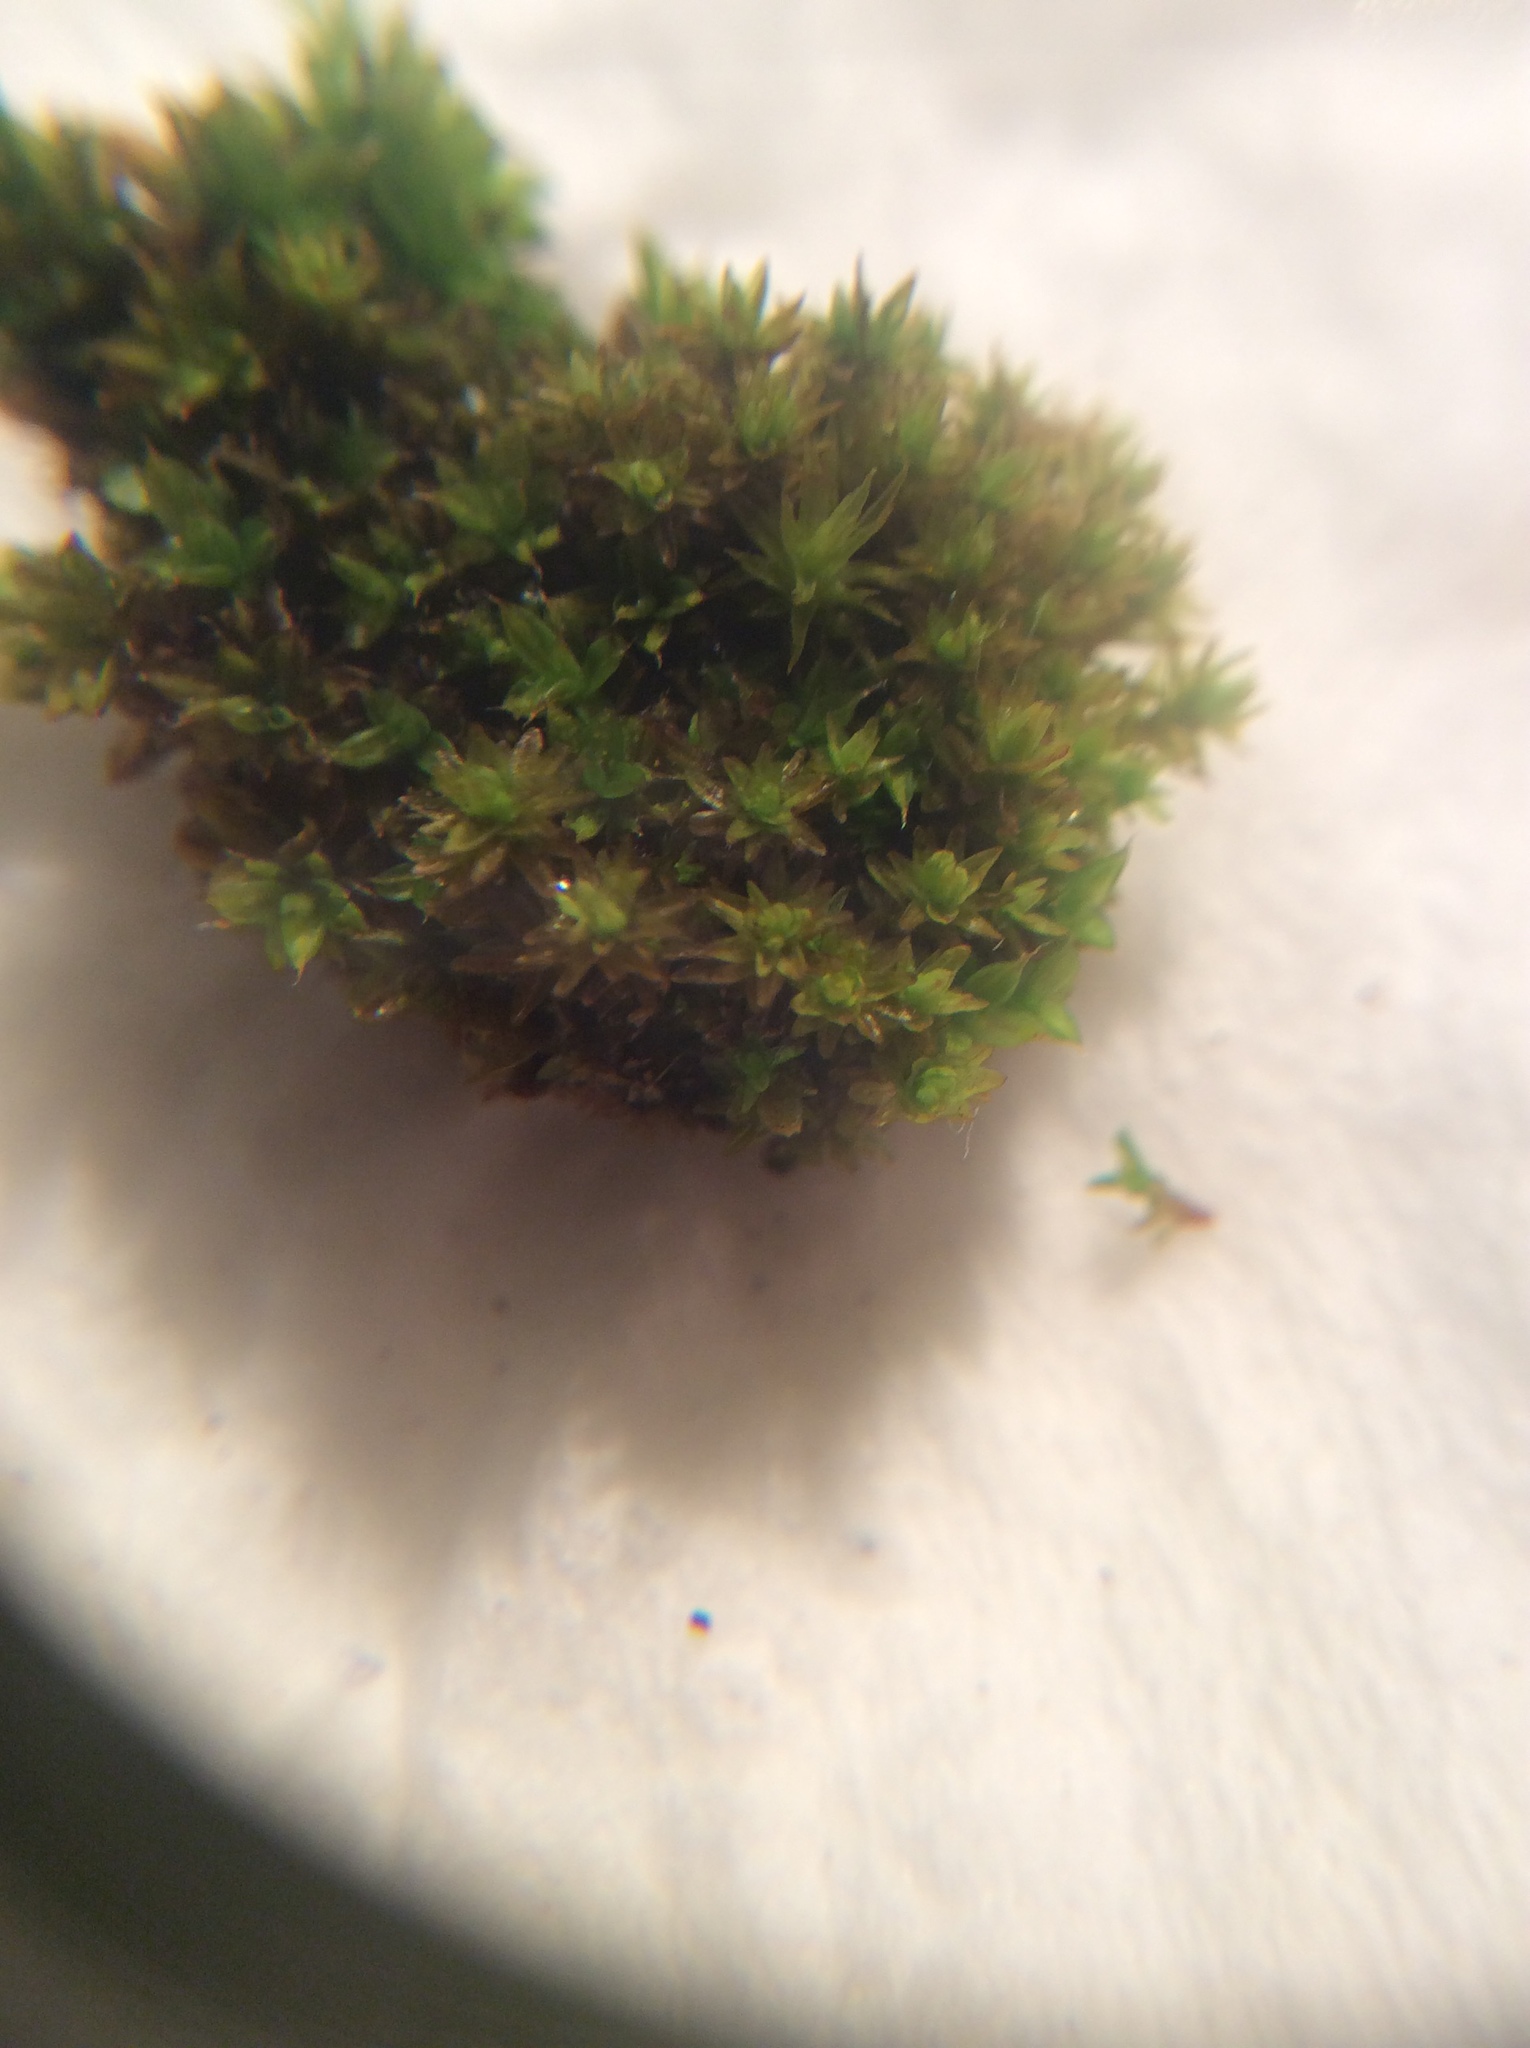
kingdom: Plantae
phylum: Bryophyta
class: Bryopsida
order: Orthotrichales
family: Orthotrichaceae
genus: Nyholmiella
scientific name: Nyholmiella obtusifolia
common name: Blunt-leaved bristle-moss
